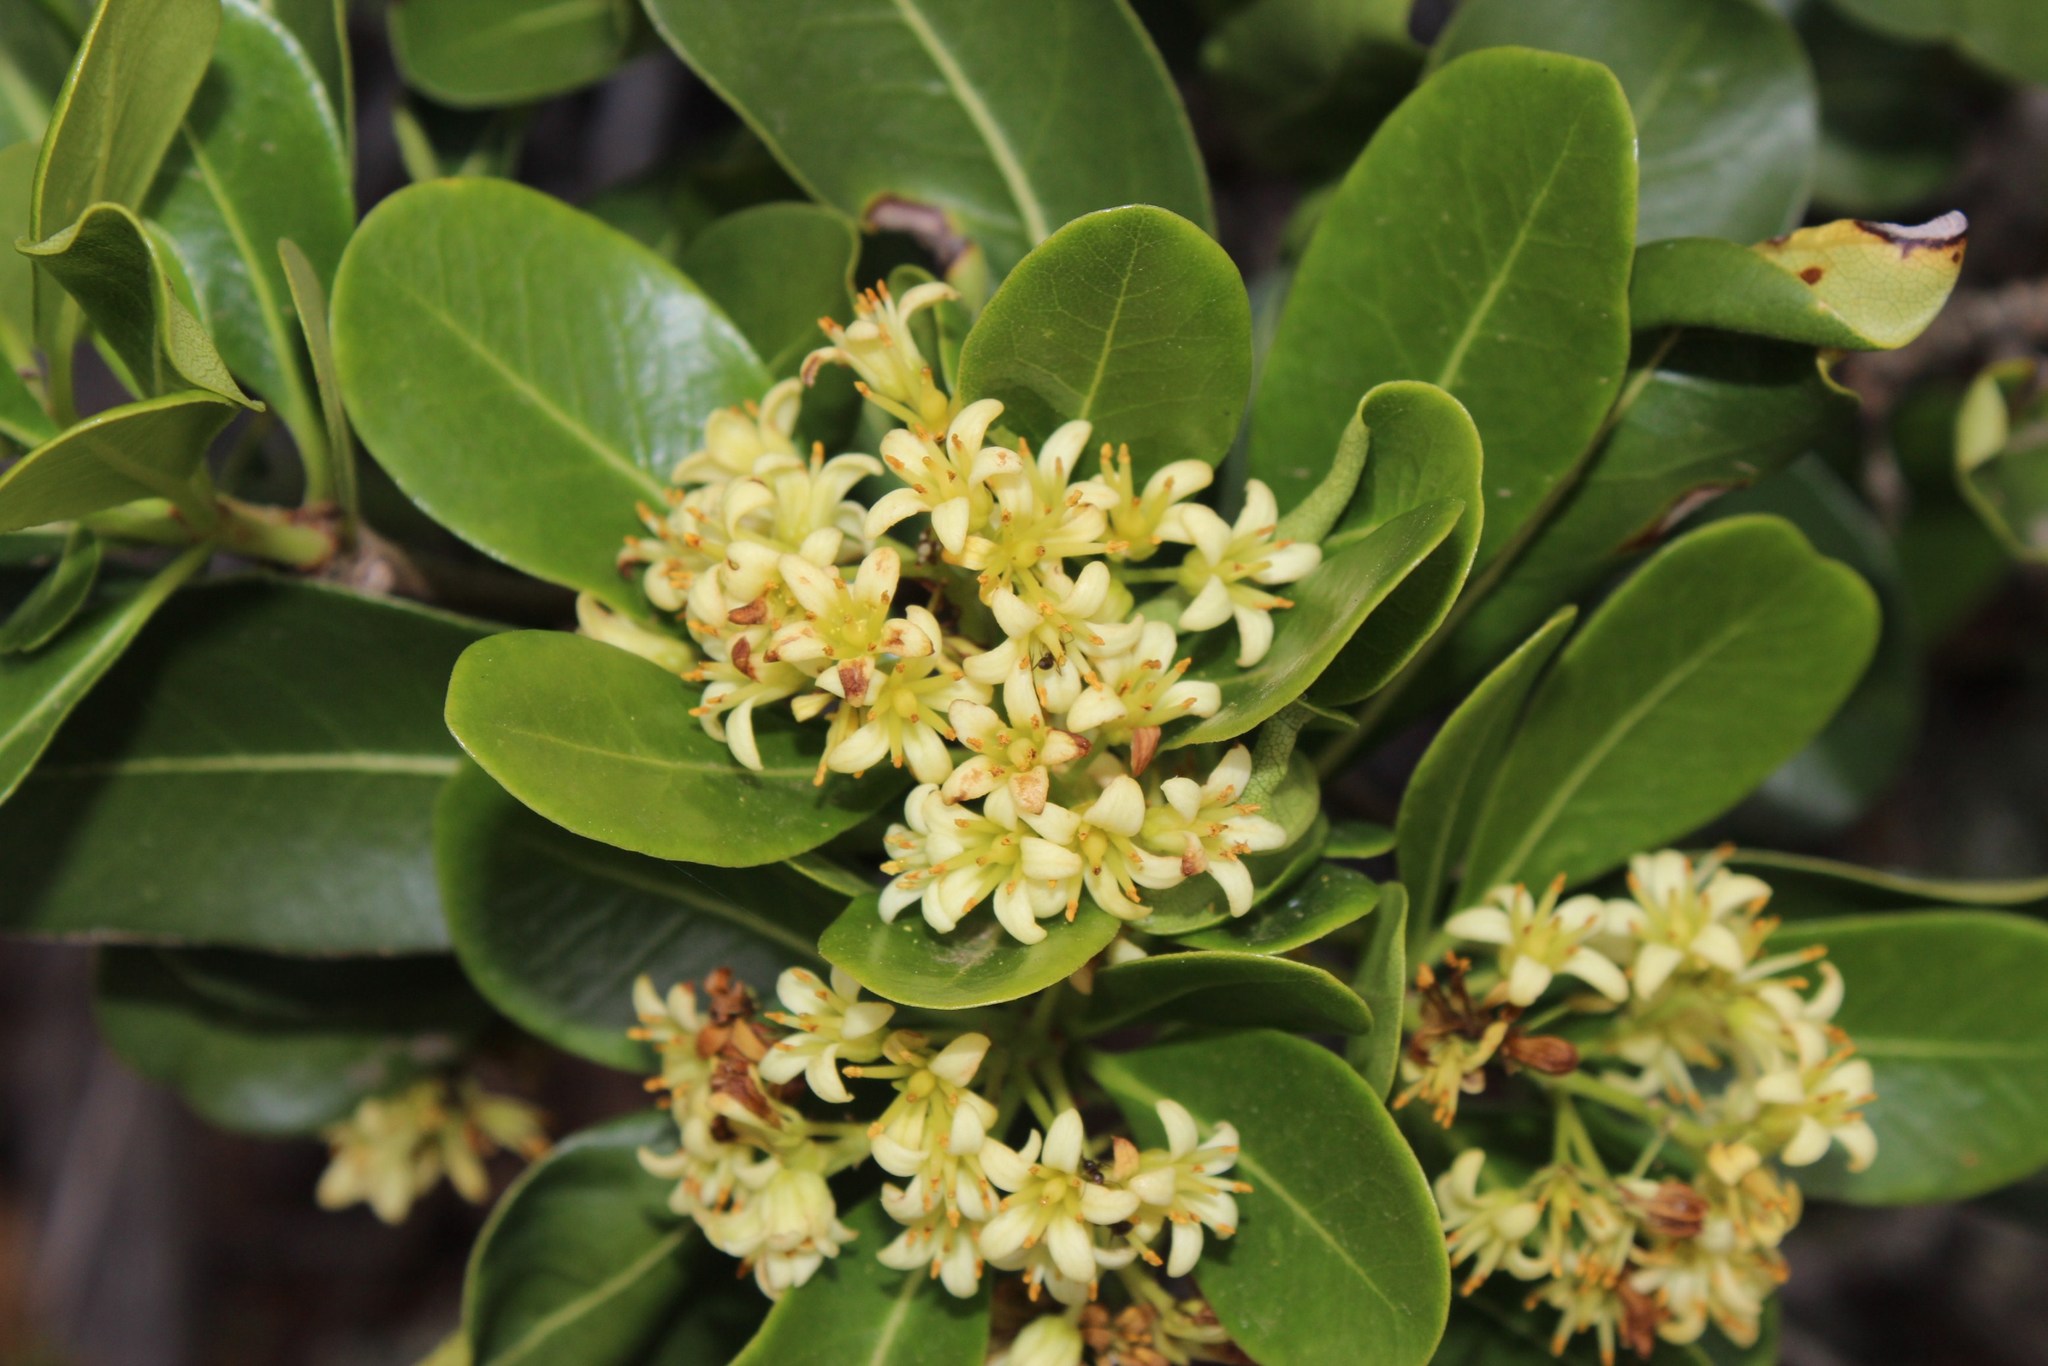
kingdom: Plantae
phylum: Tracheophyta
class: Magnoliopsida
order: Apiales
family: Pittosporaceae
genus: Pittosporum
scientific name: Pittosporum viridiflorum
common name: Cape cheesewood
